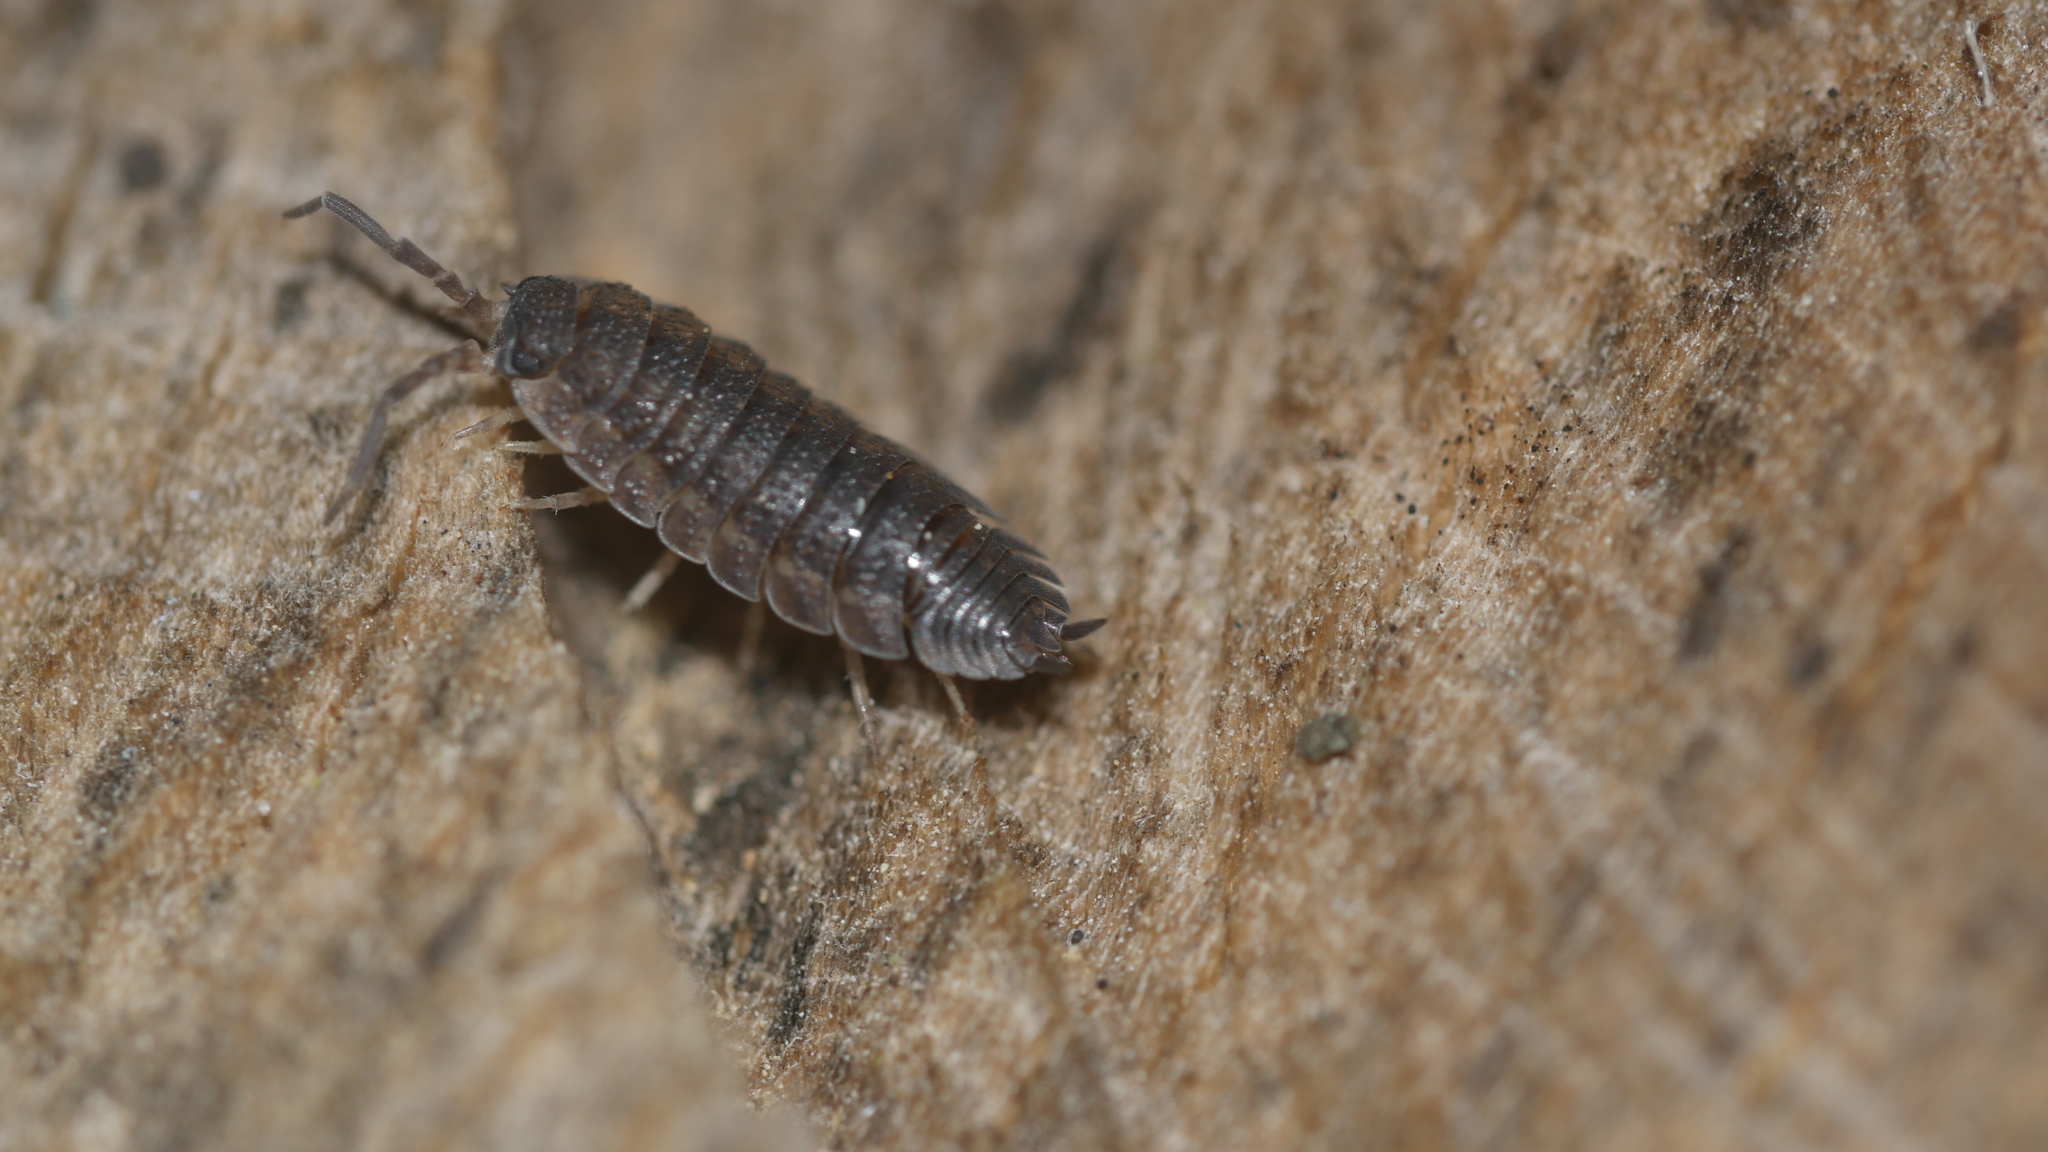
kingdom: Animalia
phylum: Arthropoda
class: Malacostraca
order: Isopoda
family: Porcellionidae
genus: Porcellio
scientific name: Porcellio scaber
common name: Common rough woodlouse
